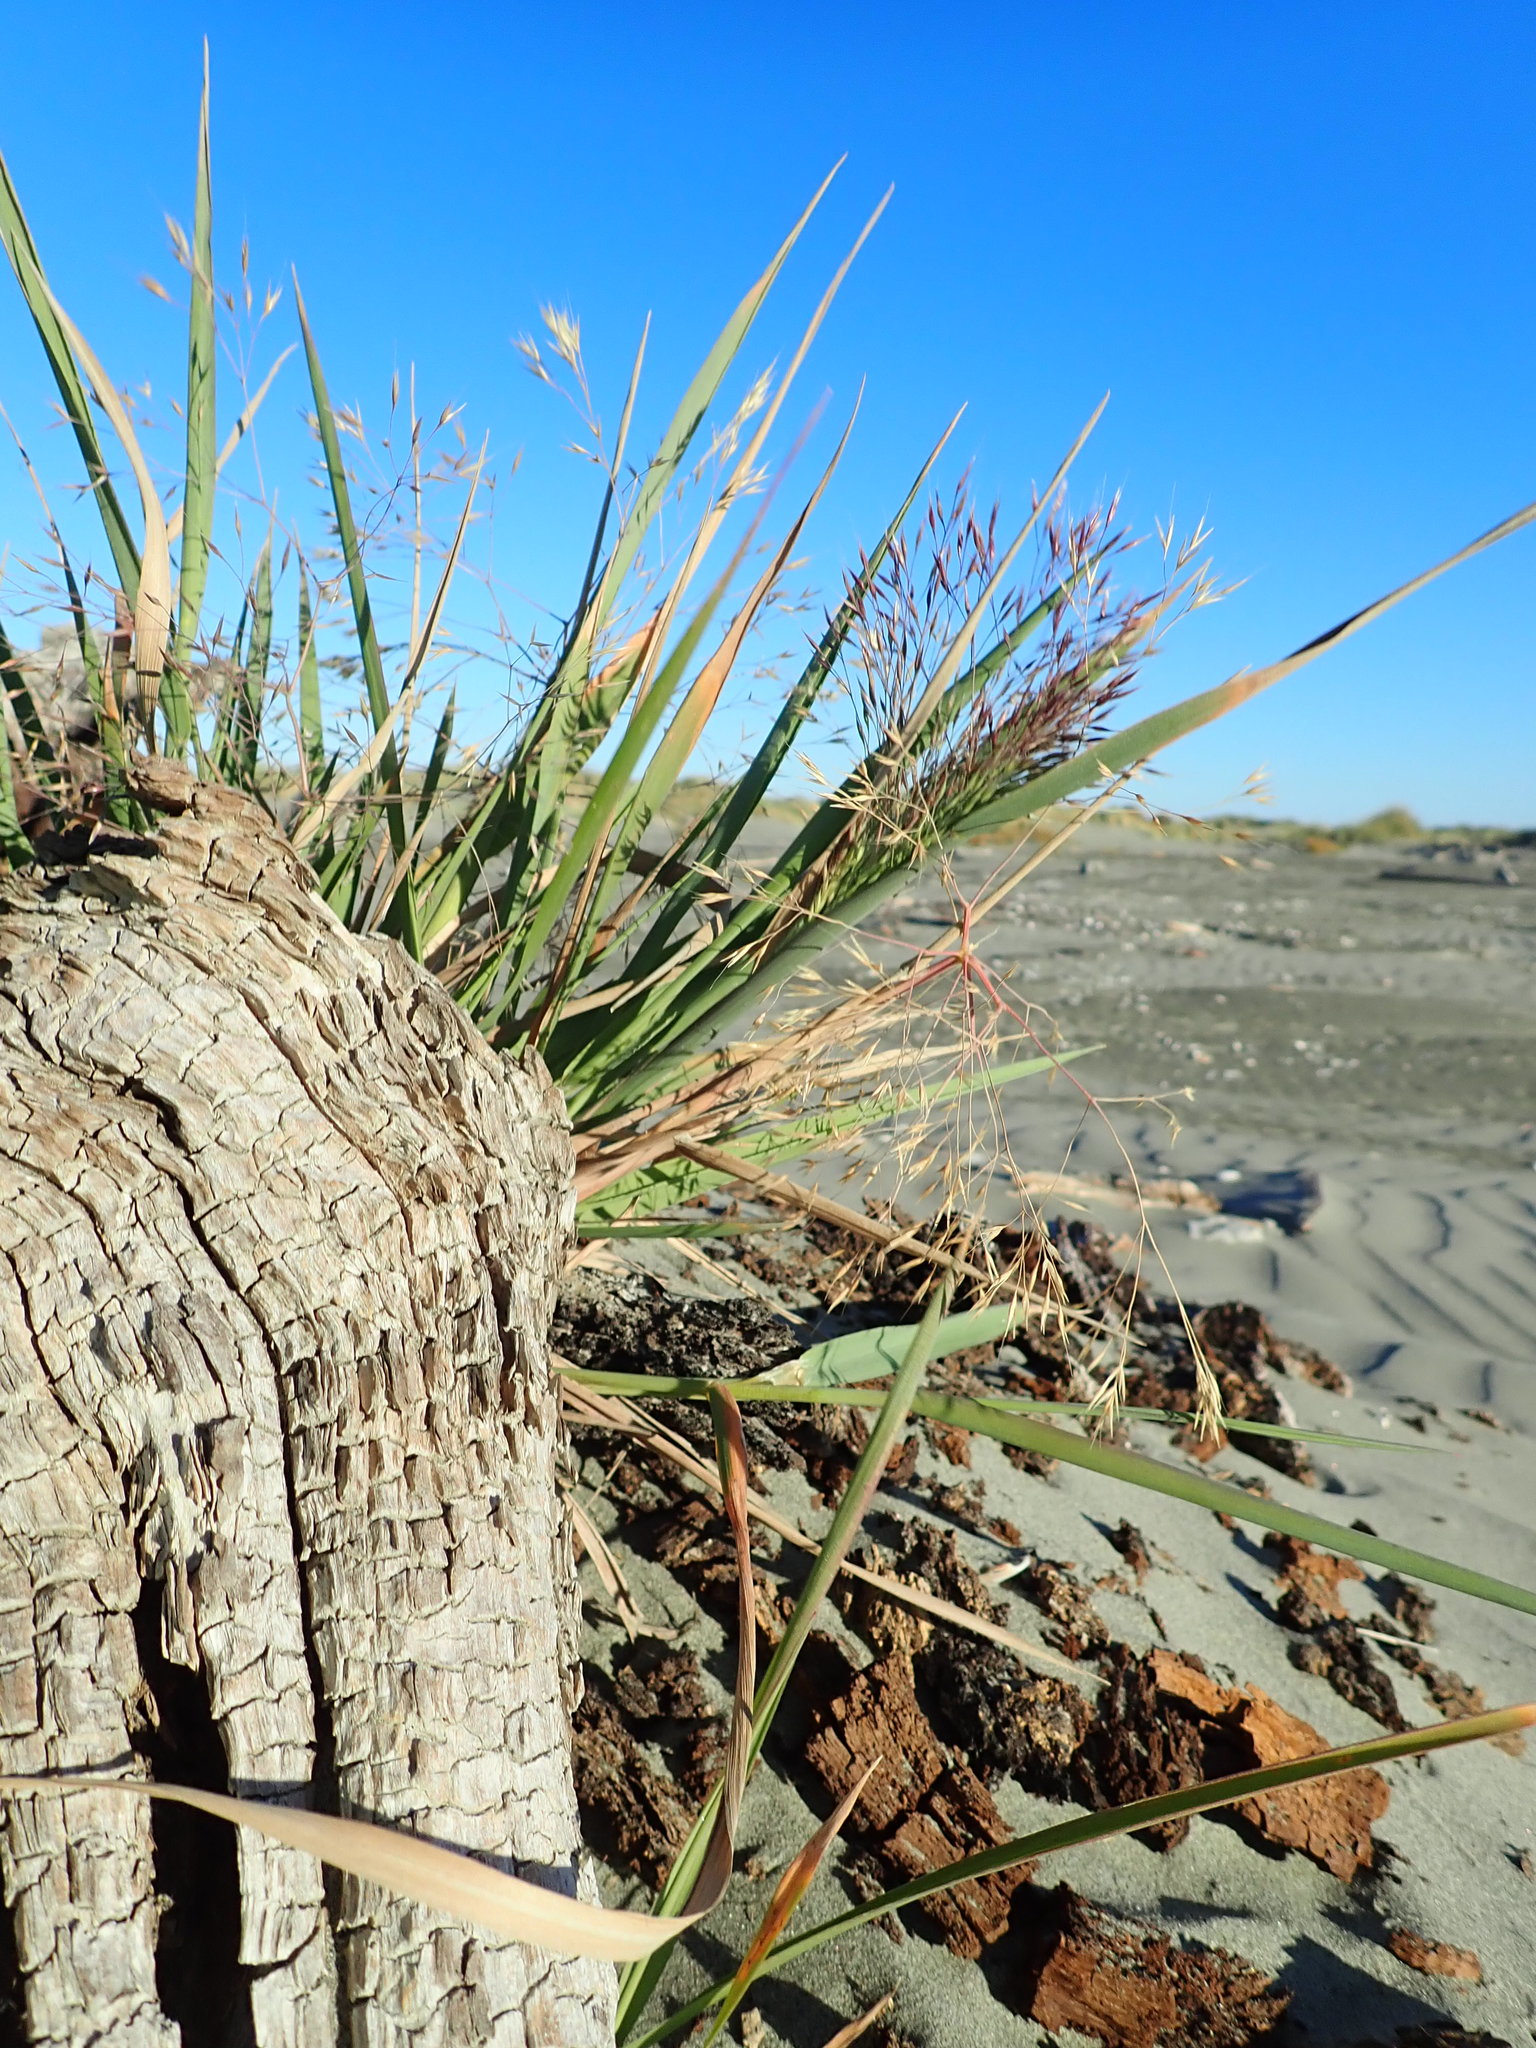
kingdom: Plantae
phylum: Tracheophyta
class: Liliopsida
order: Poales
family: Poaceae
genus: Lachnagrostis
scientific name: Lachnagrostis billardierei
